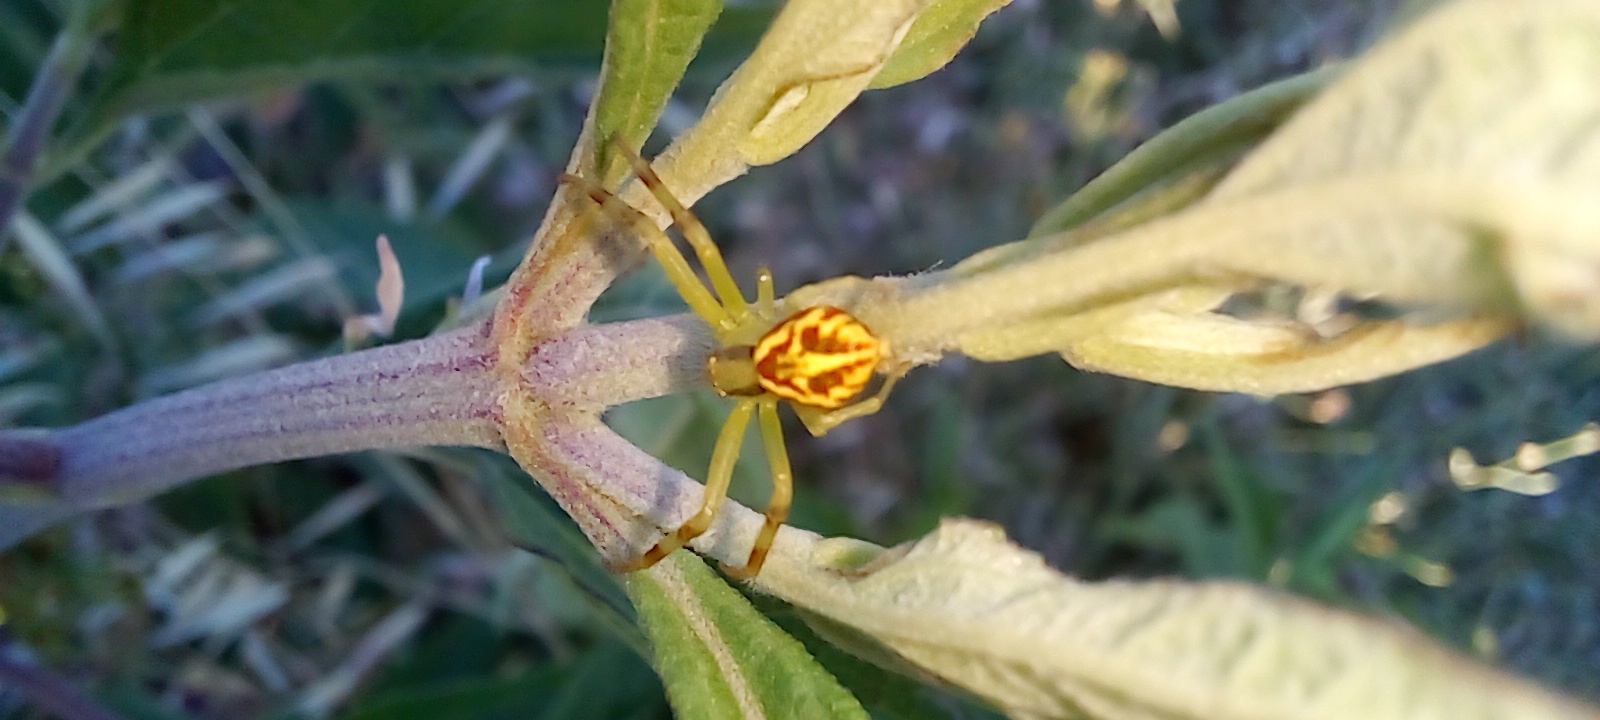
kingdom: Animalia
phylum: Arthropoda
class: Arachnida
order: Araneae
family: Thomisidae
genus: Misumenops
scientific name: Misumenops
